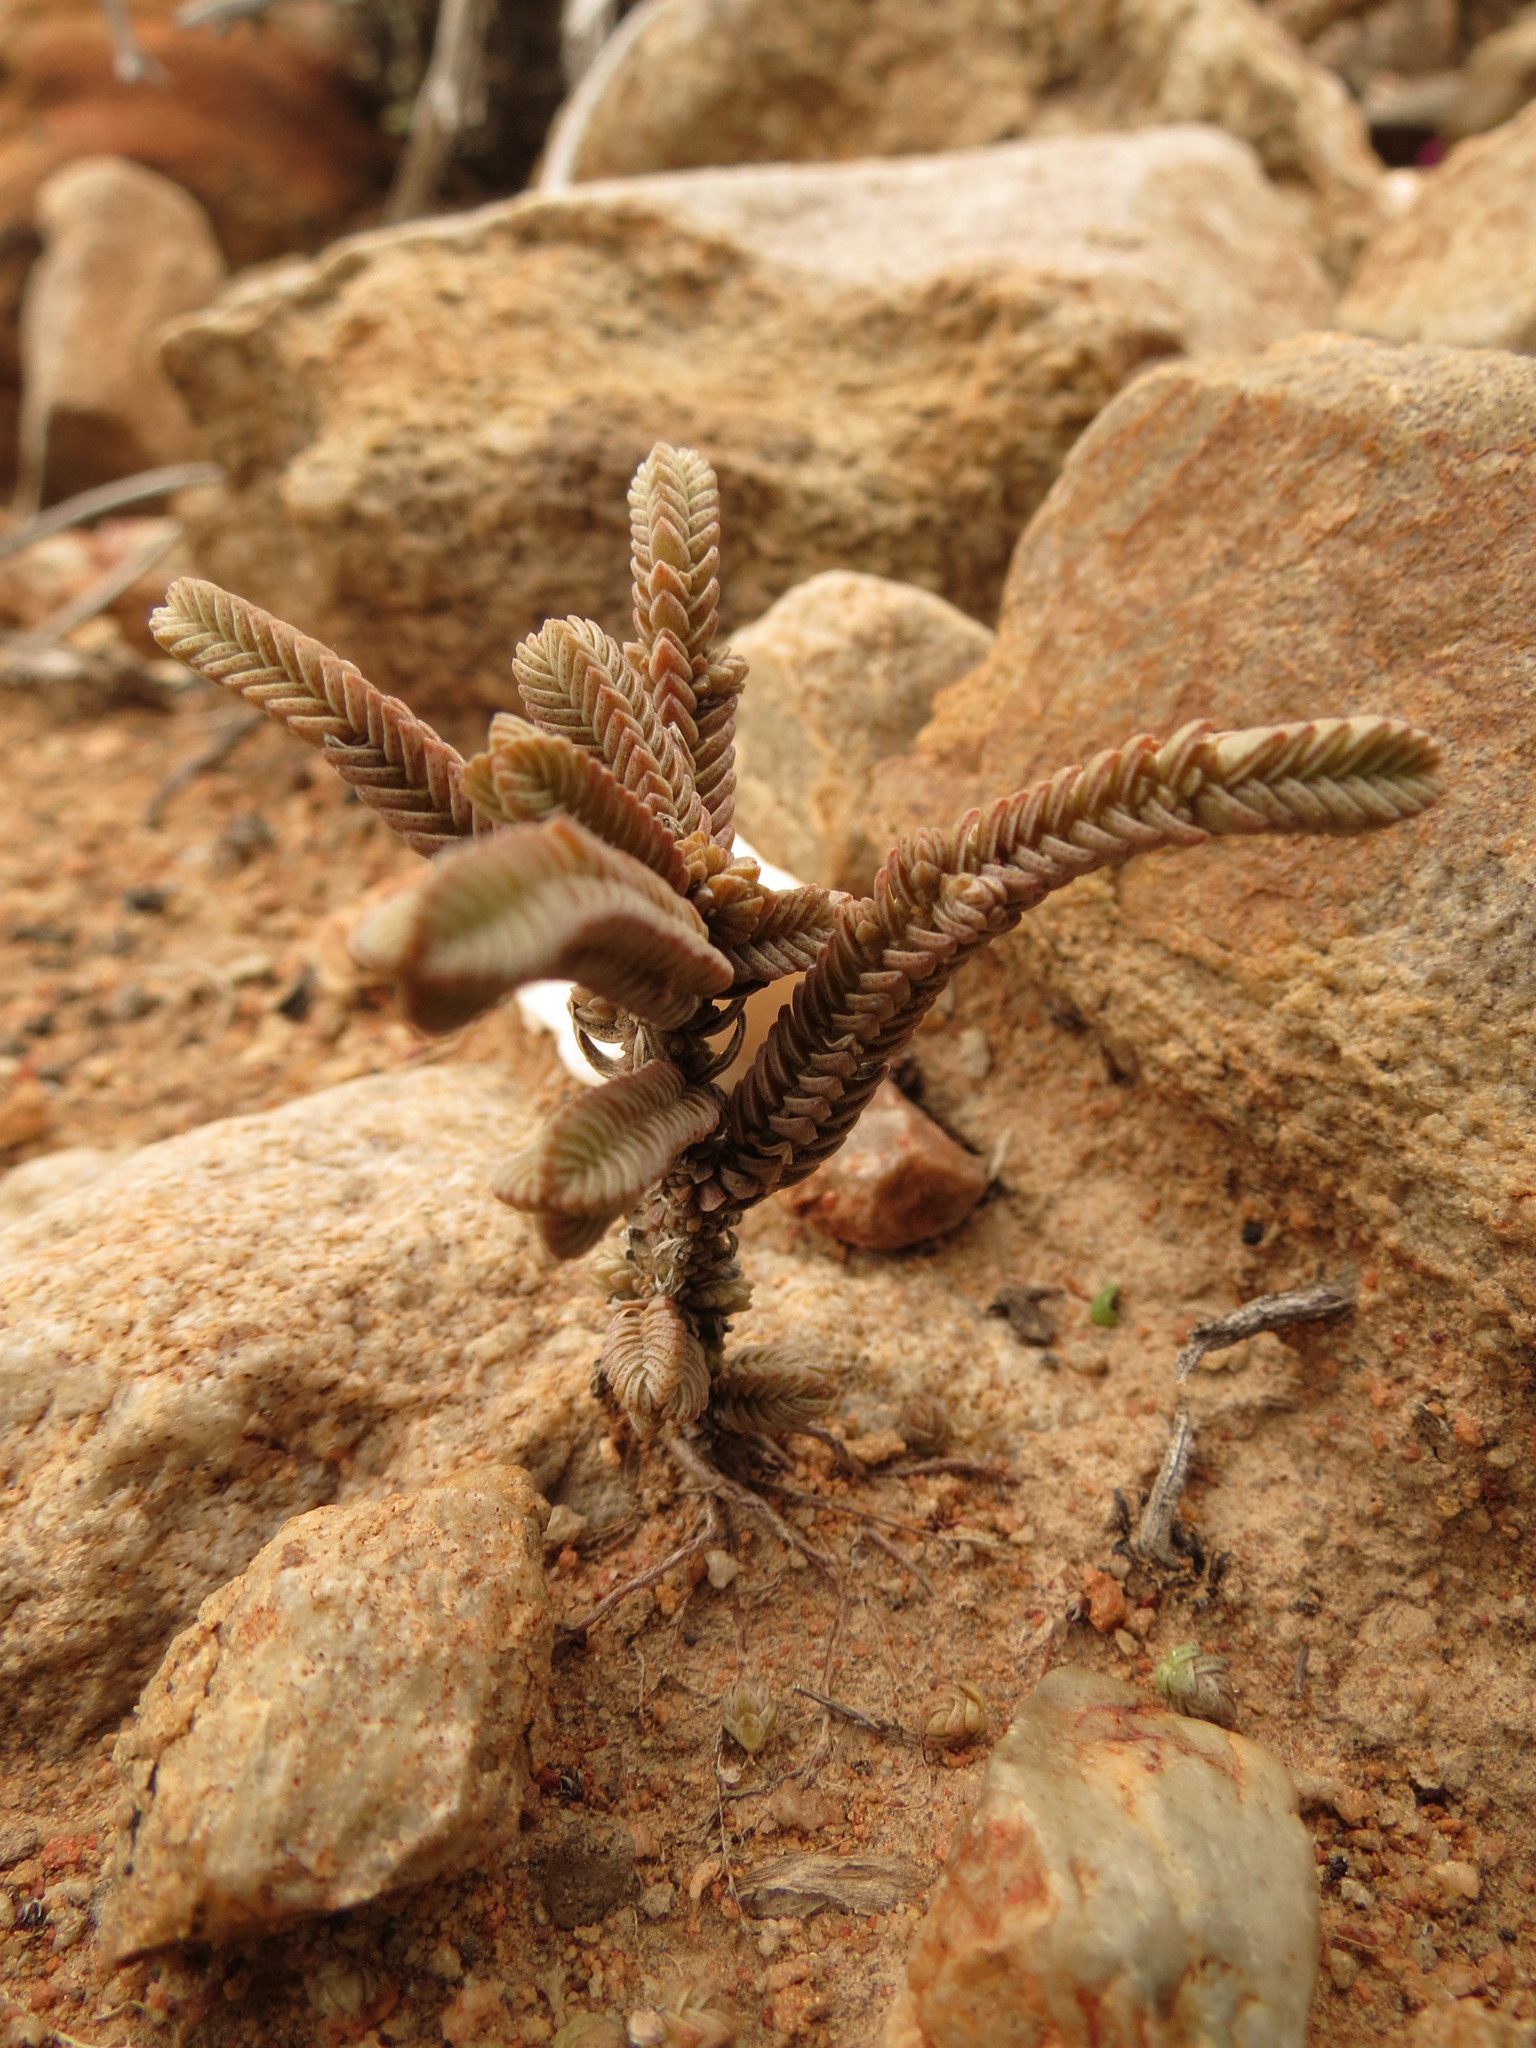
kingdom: Plantae
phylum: Tracheophyta
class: Magnoliopsida
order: Saxifragales
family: Crassulaceae
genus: Crassula
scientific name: Crassula muscosa
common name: Toy-cypress
